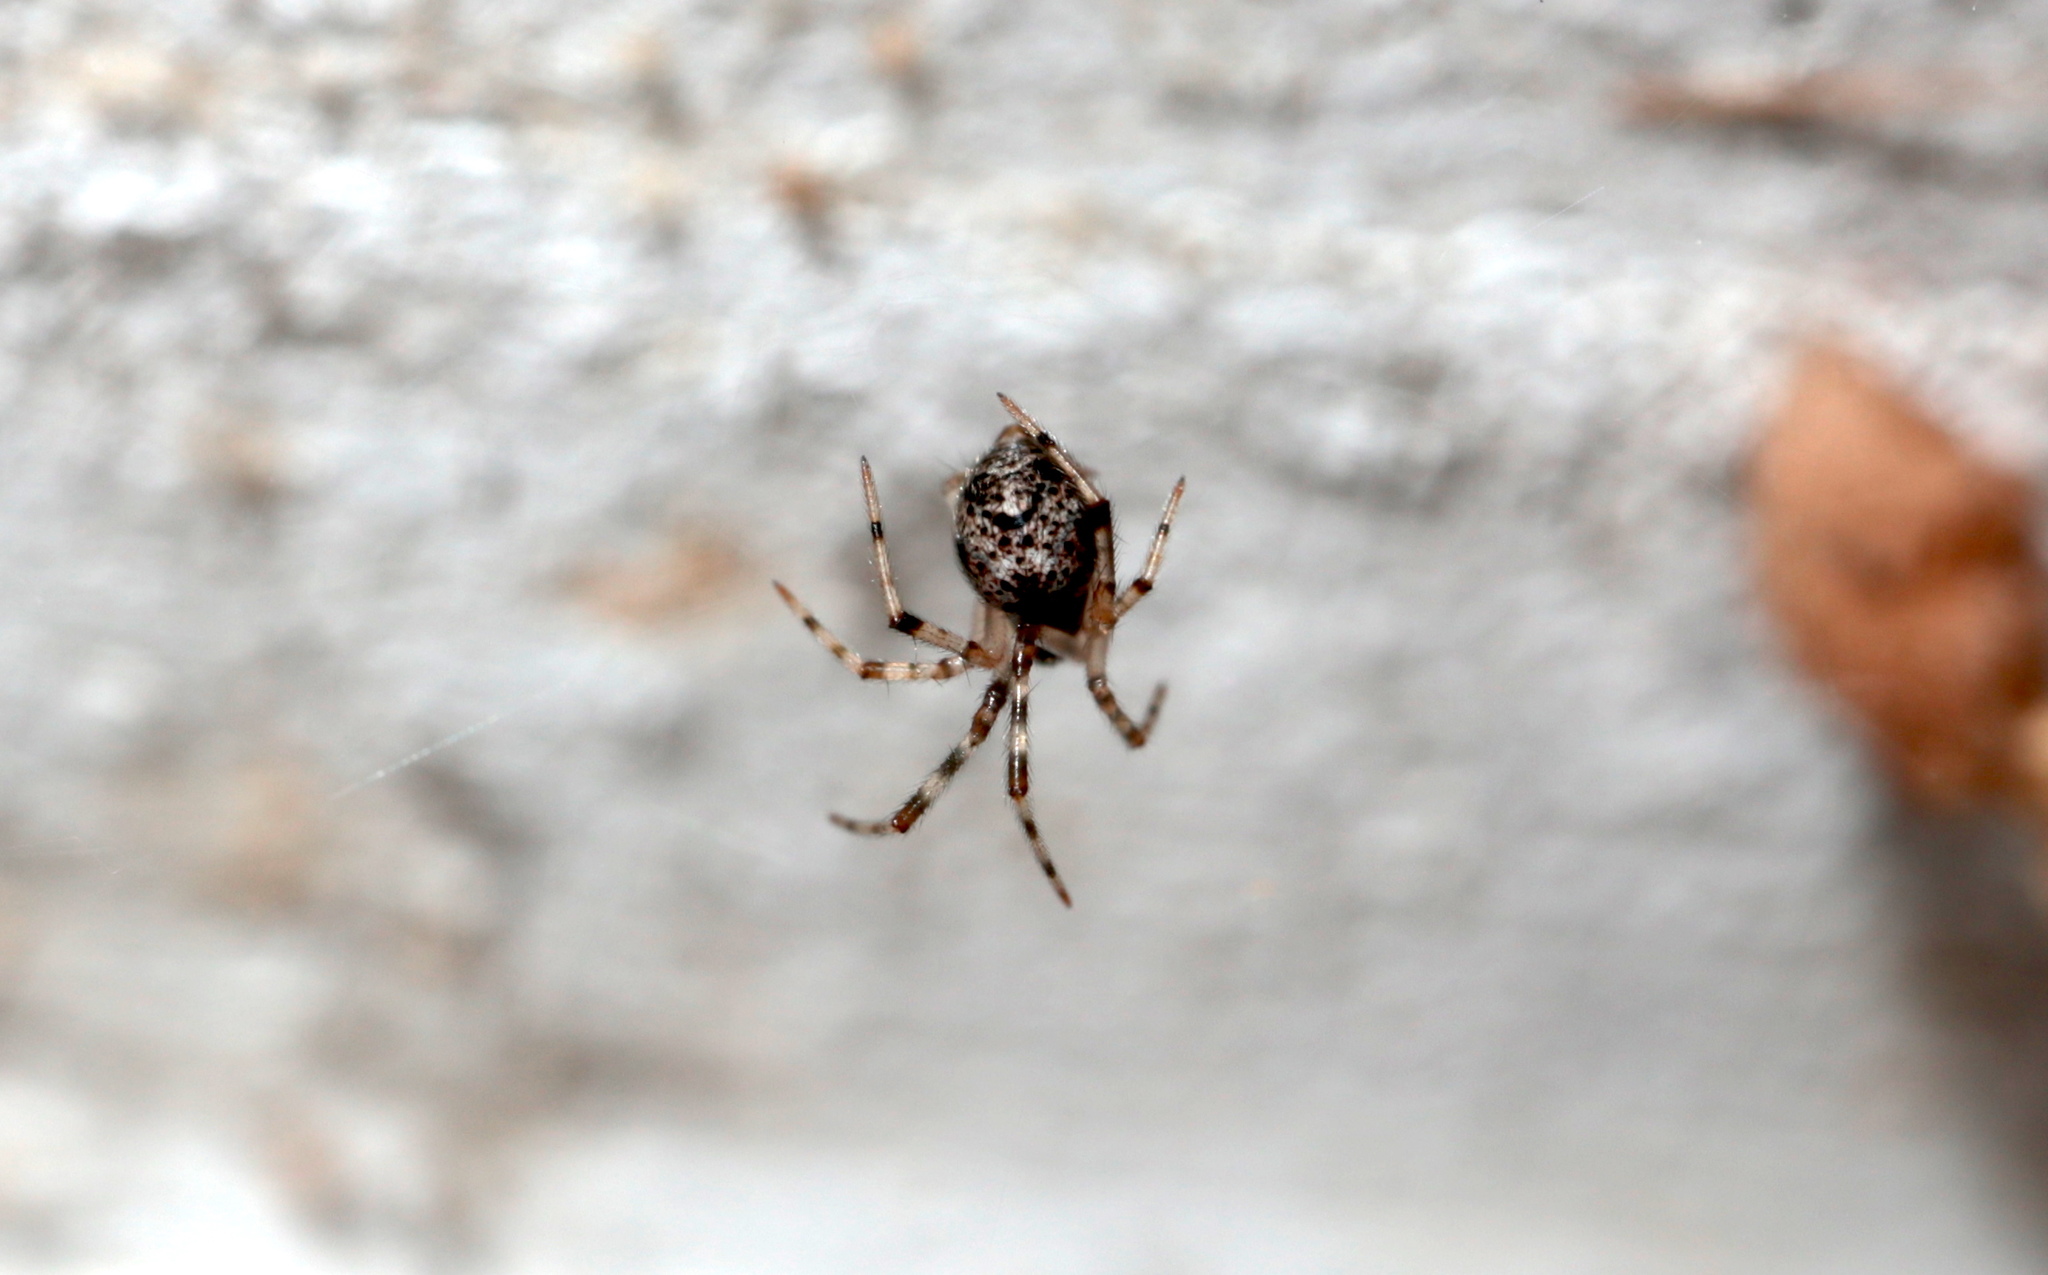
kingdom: Animalia
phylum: Arthropoda
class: Arachnida
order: Araneae
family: Theridiidae
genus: Parasteatoda
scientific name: Parasteatoda tepidariorum
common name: Common house spider
